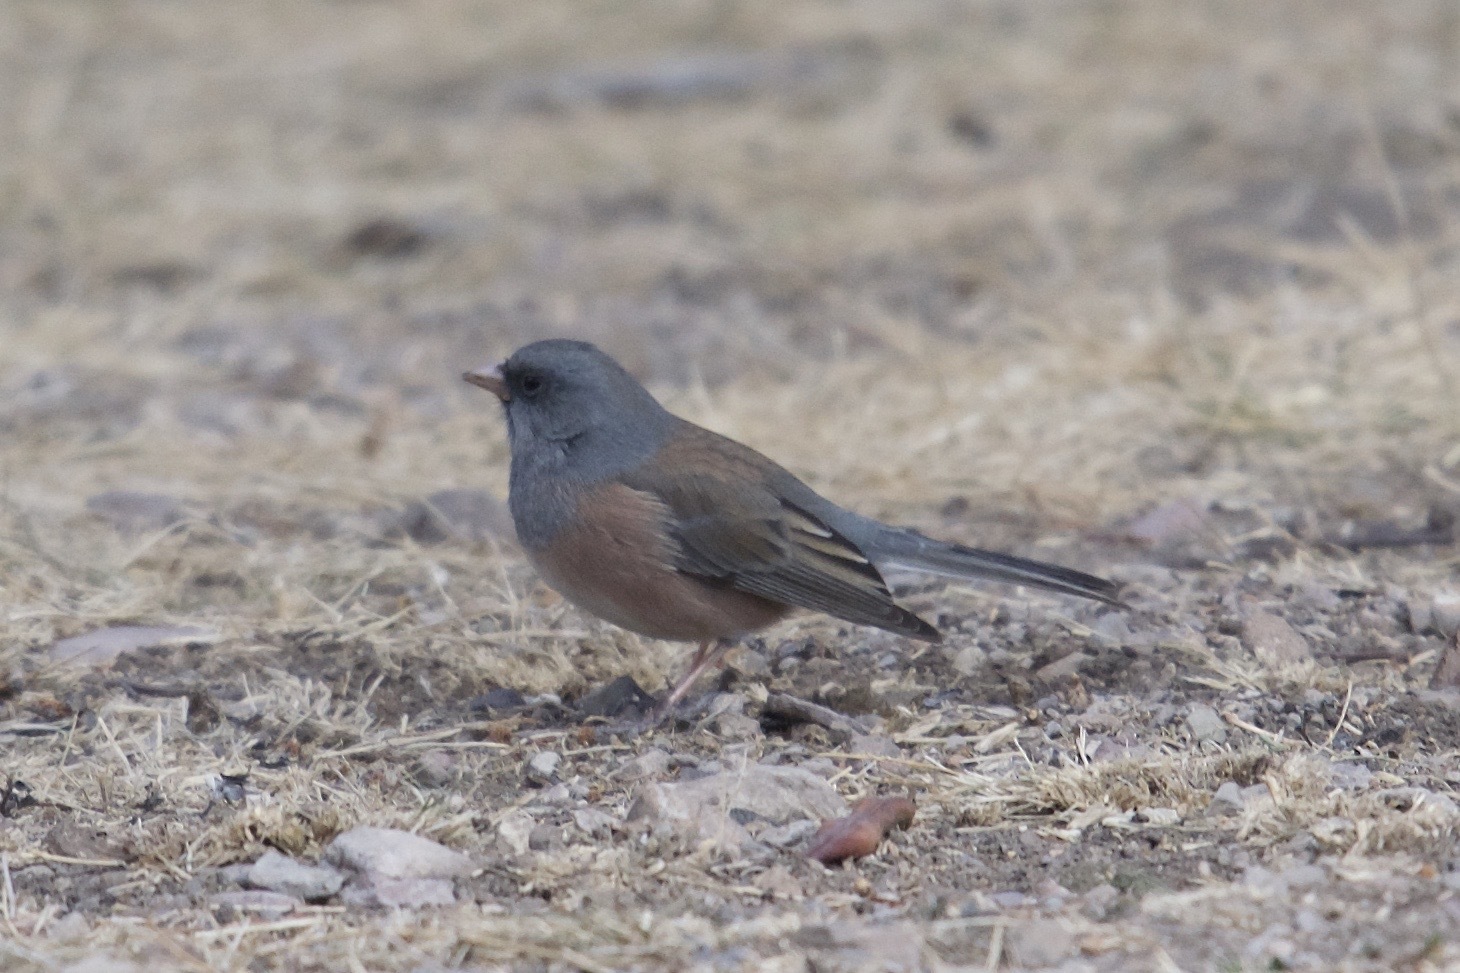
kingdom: Animalia
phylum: Chordata
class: Aves
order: Passeriformes
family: Passerellidae
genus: Junco
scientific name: Junco hyemalis
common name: Dark-eyed junco
